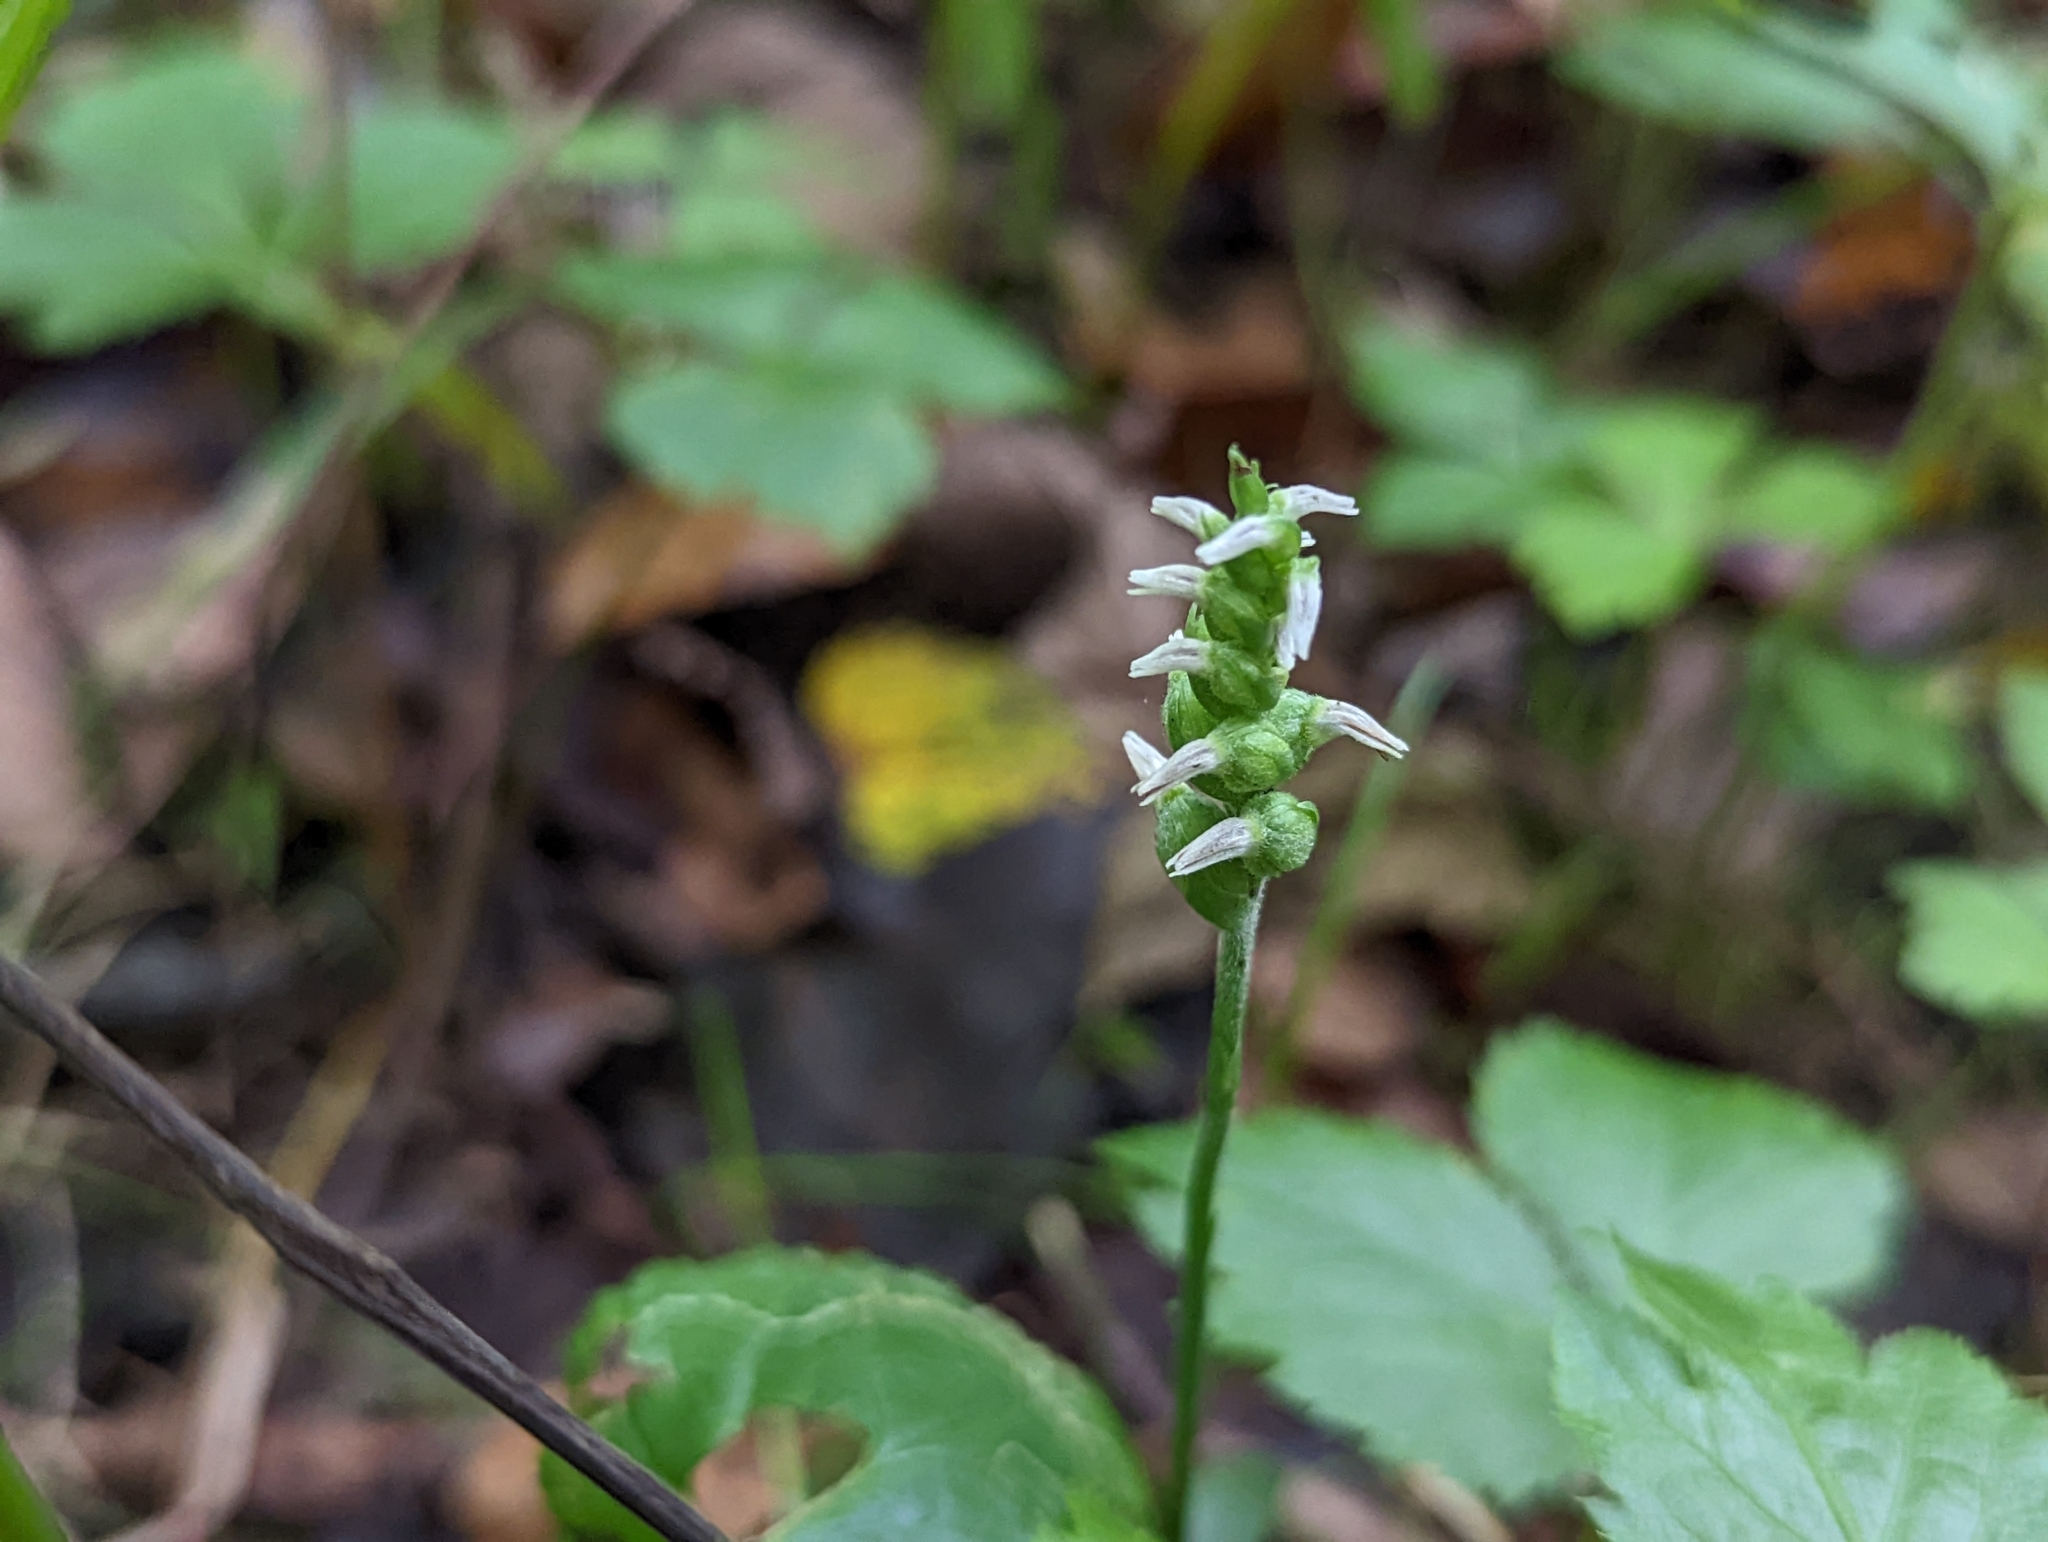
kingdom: Plantae
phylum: Tracheophyta
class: Liliopsida
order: Asparagales
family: Orchidaceae
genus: Spiranthes
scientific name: Spiranthes ovalis
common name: October ladies'-tresses
